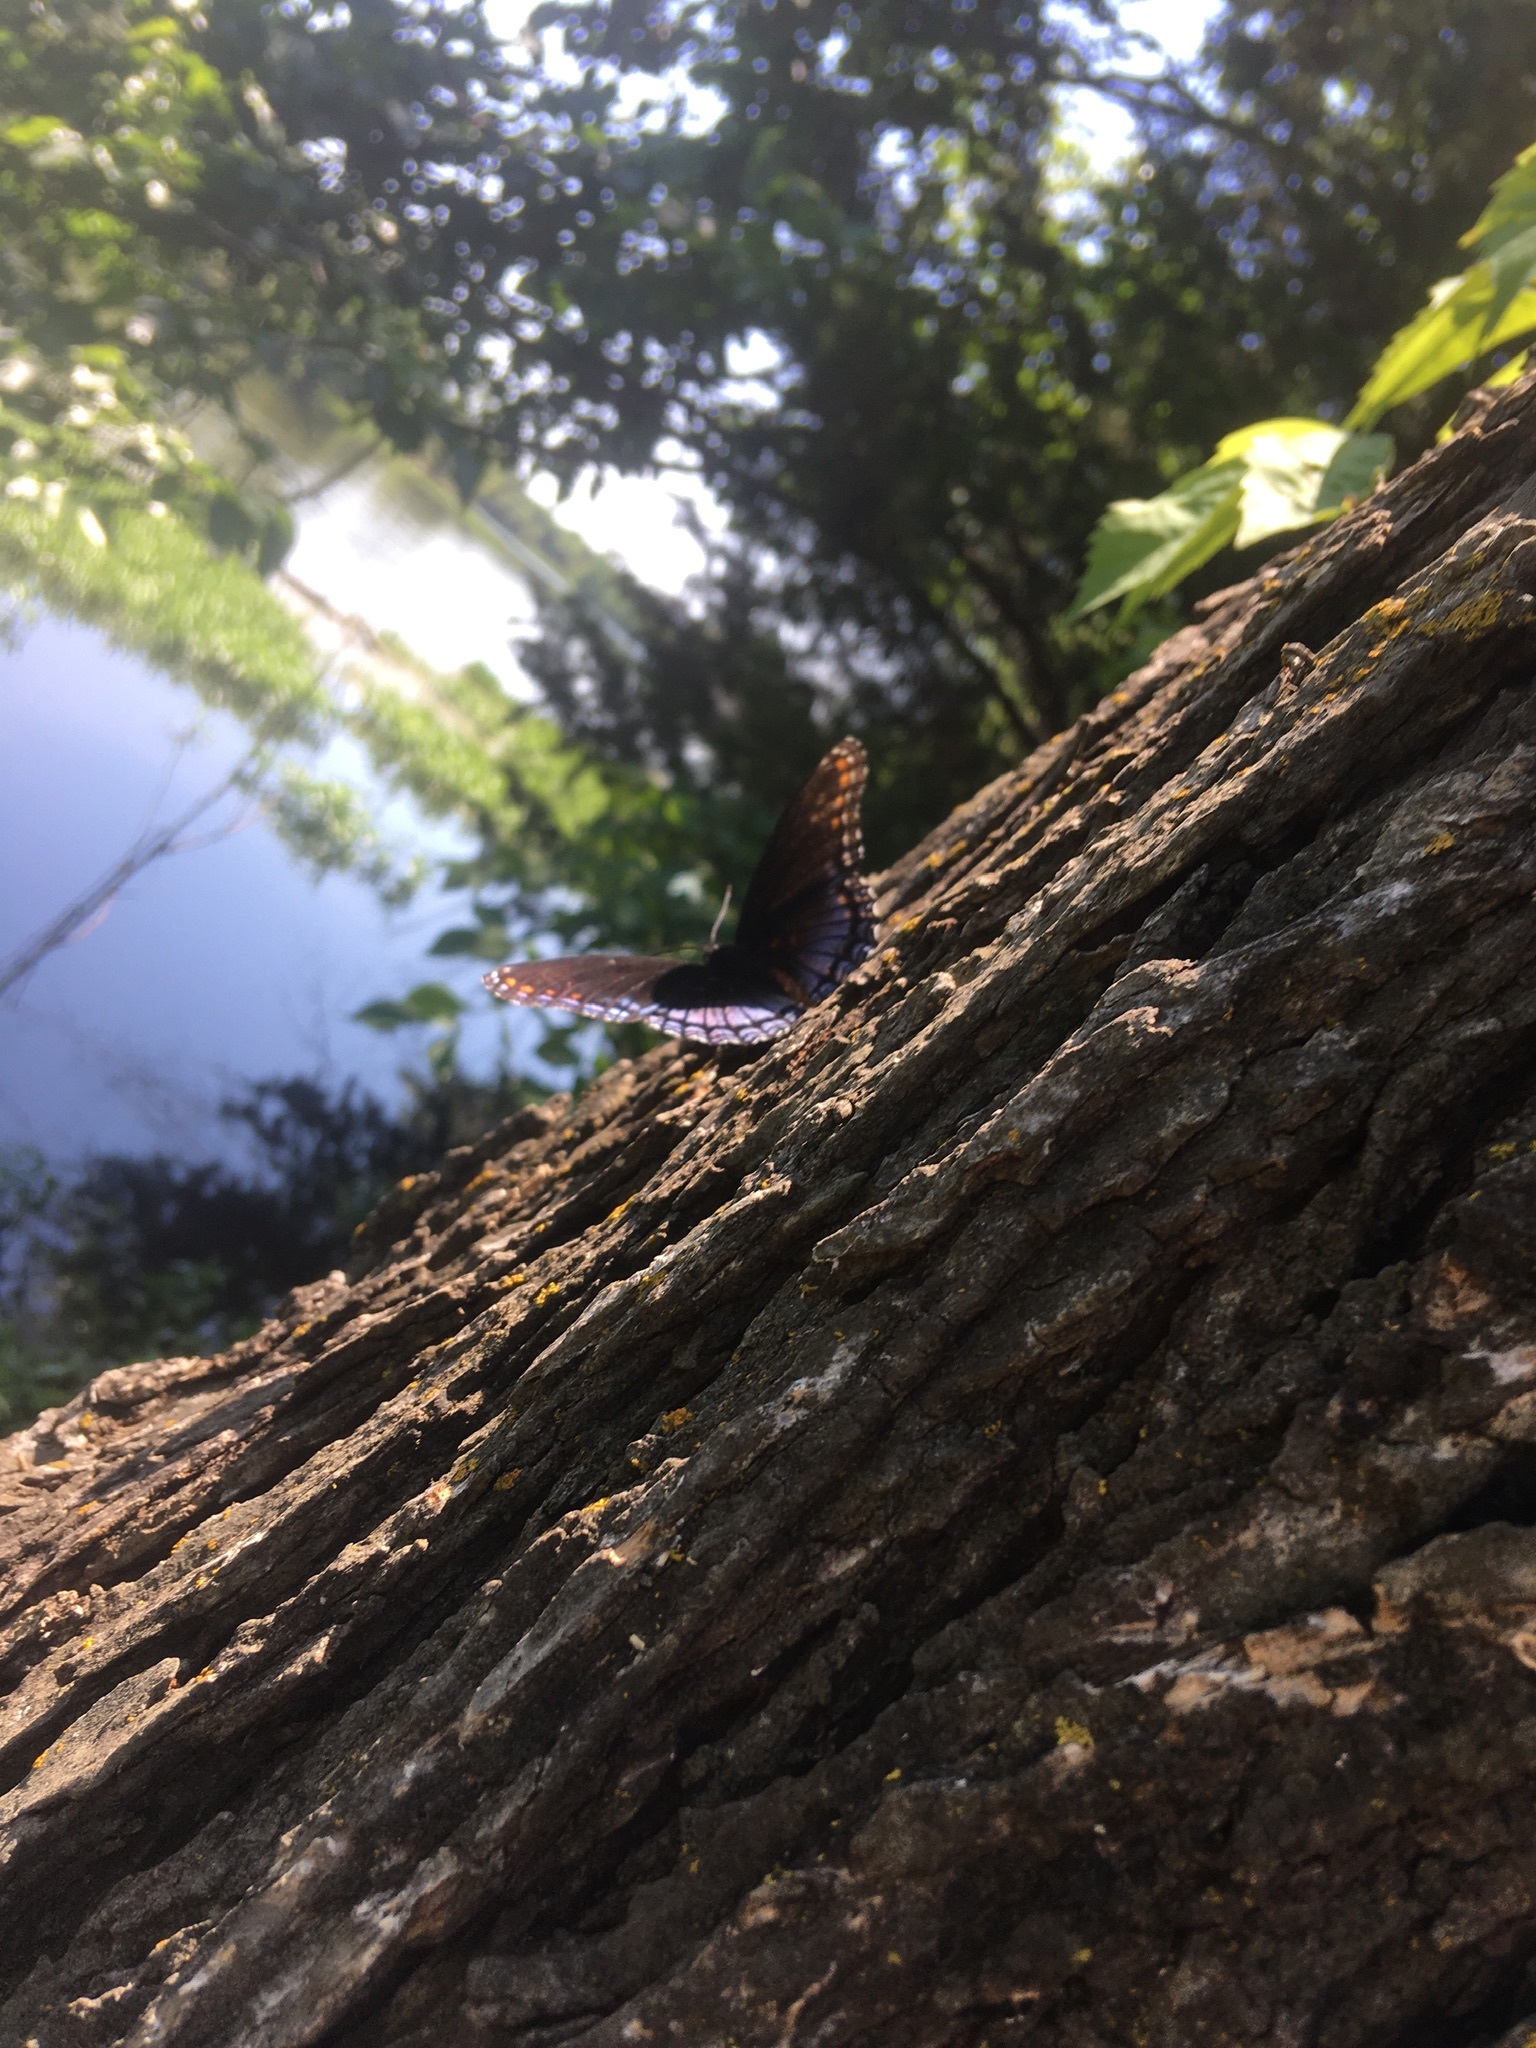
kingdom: Animalia
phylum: Arthropoda
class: Insecta
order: Lepidoptera
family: Nymphalidae
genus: Limenitis
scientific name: Limenitis astyanax
